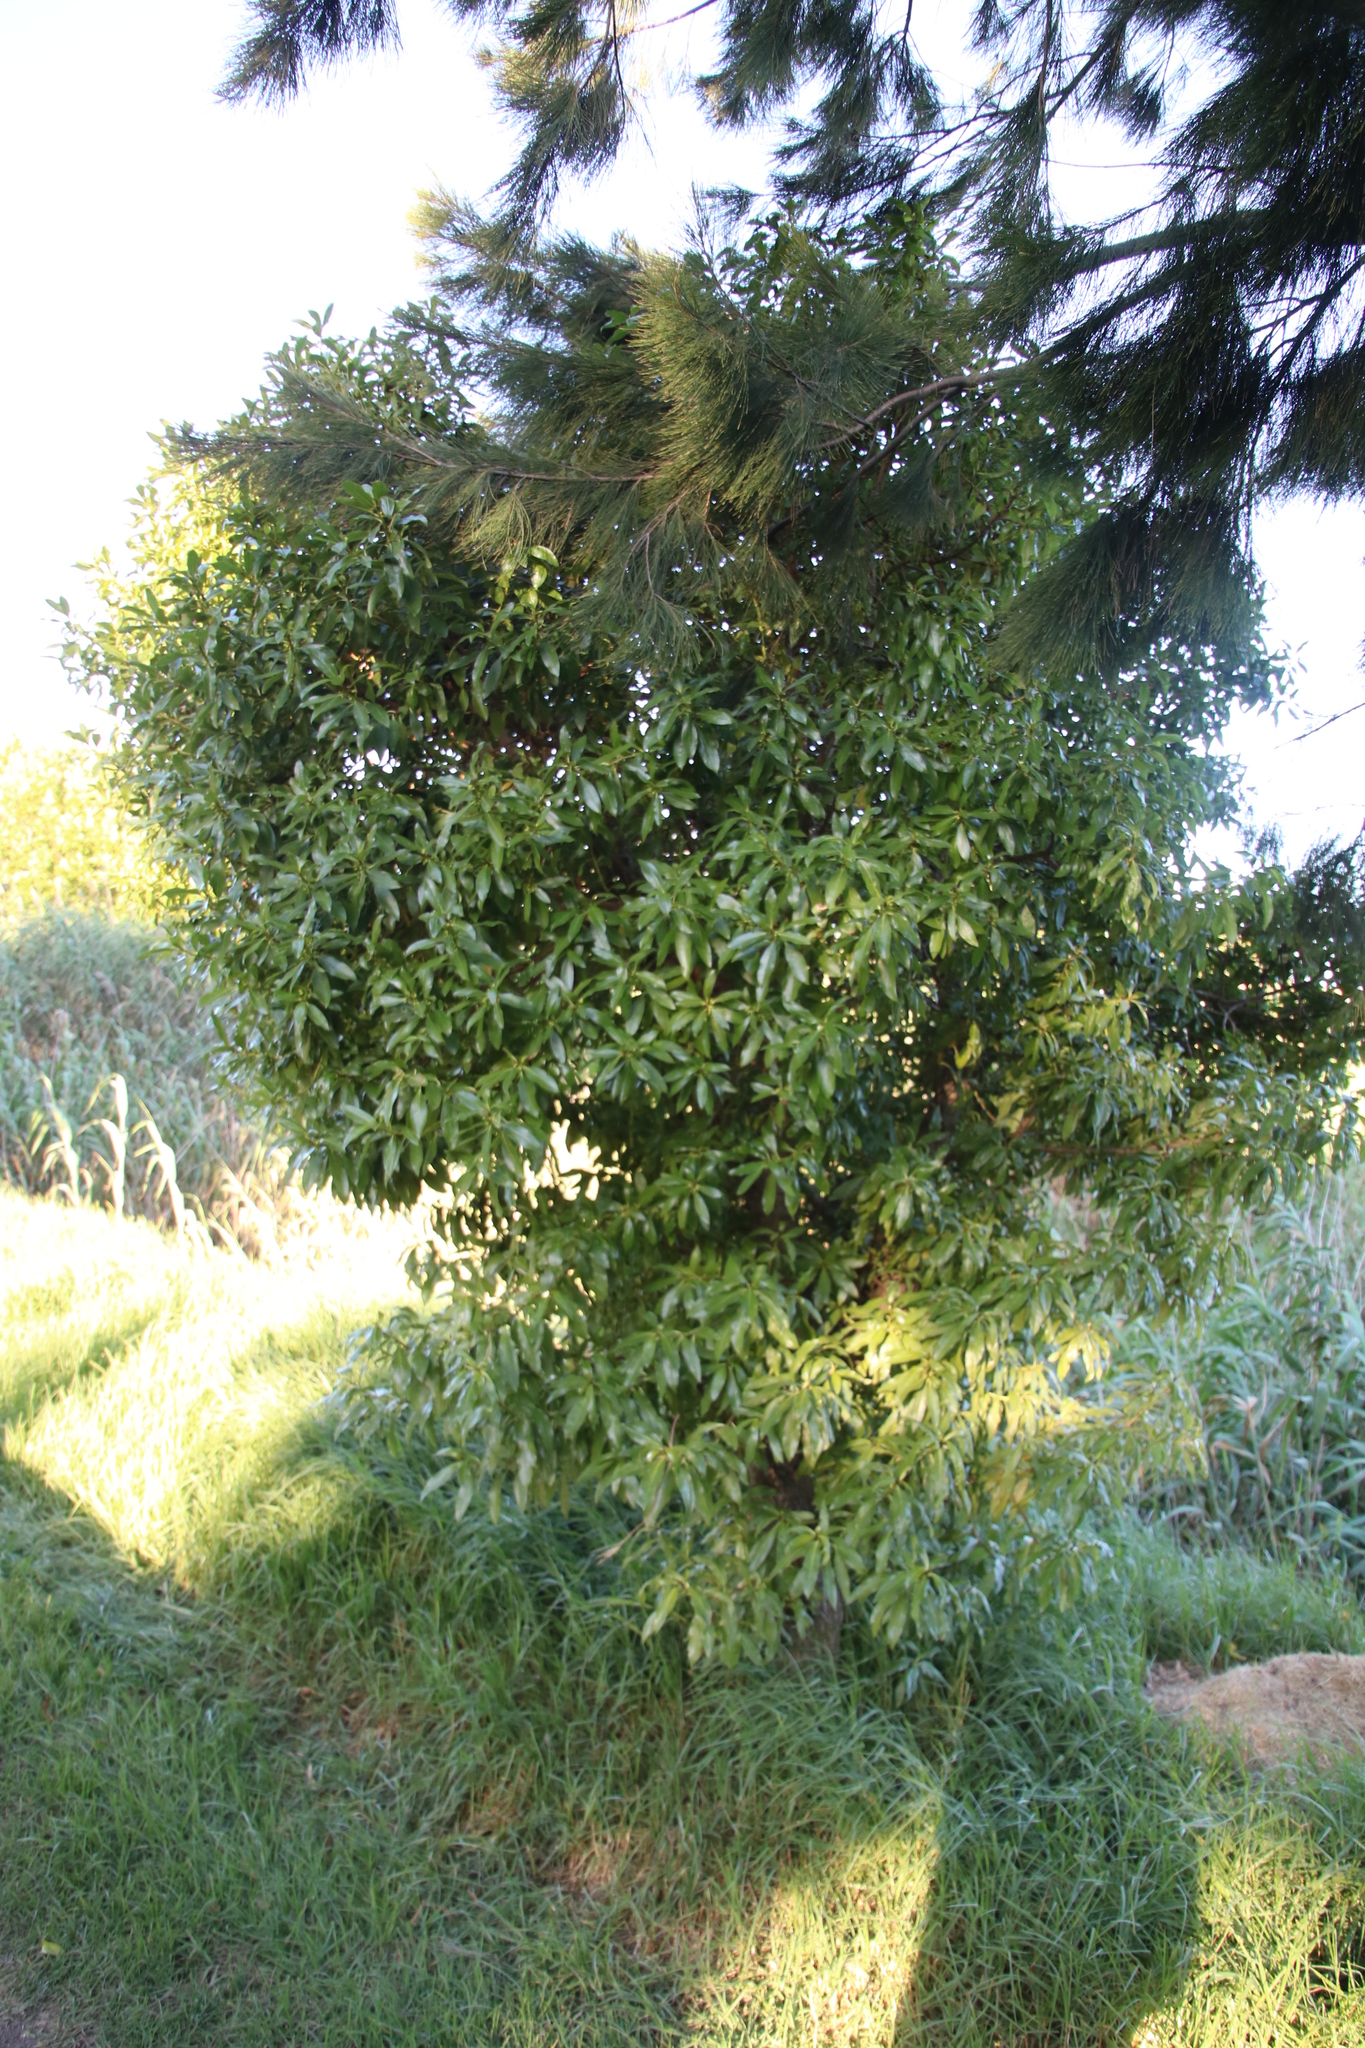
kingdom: Plantae
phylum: Tracheophyta
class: Magnoliopsida
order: Lamiales
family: Scrophulariaceae
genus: Myoporum
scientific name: Myoporum laetum
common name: Ngaio tree
